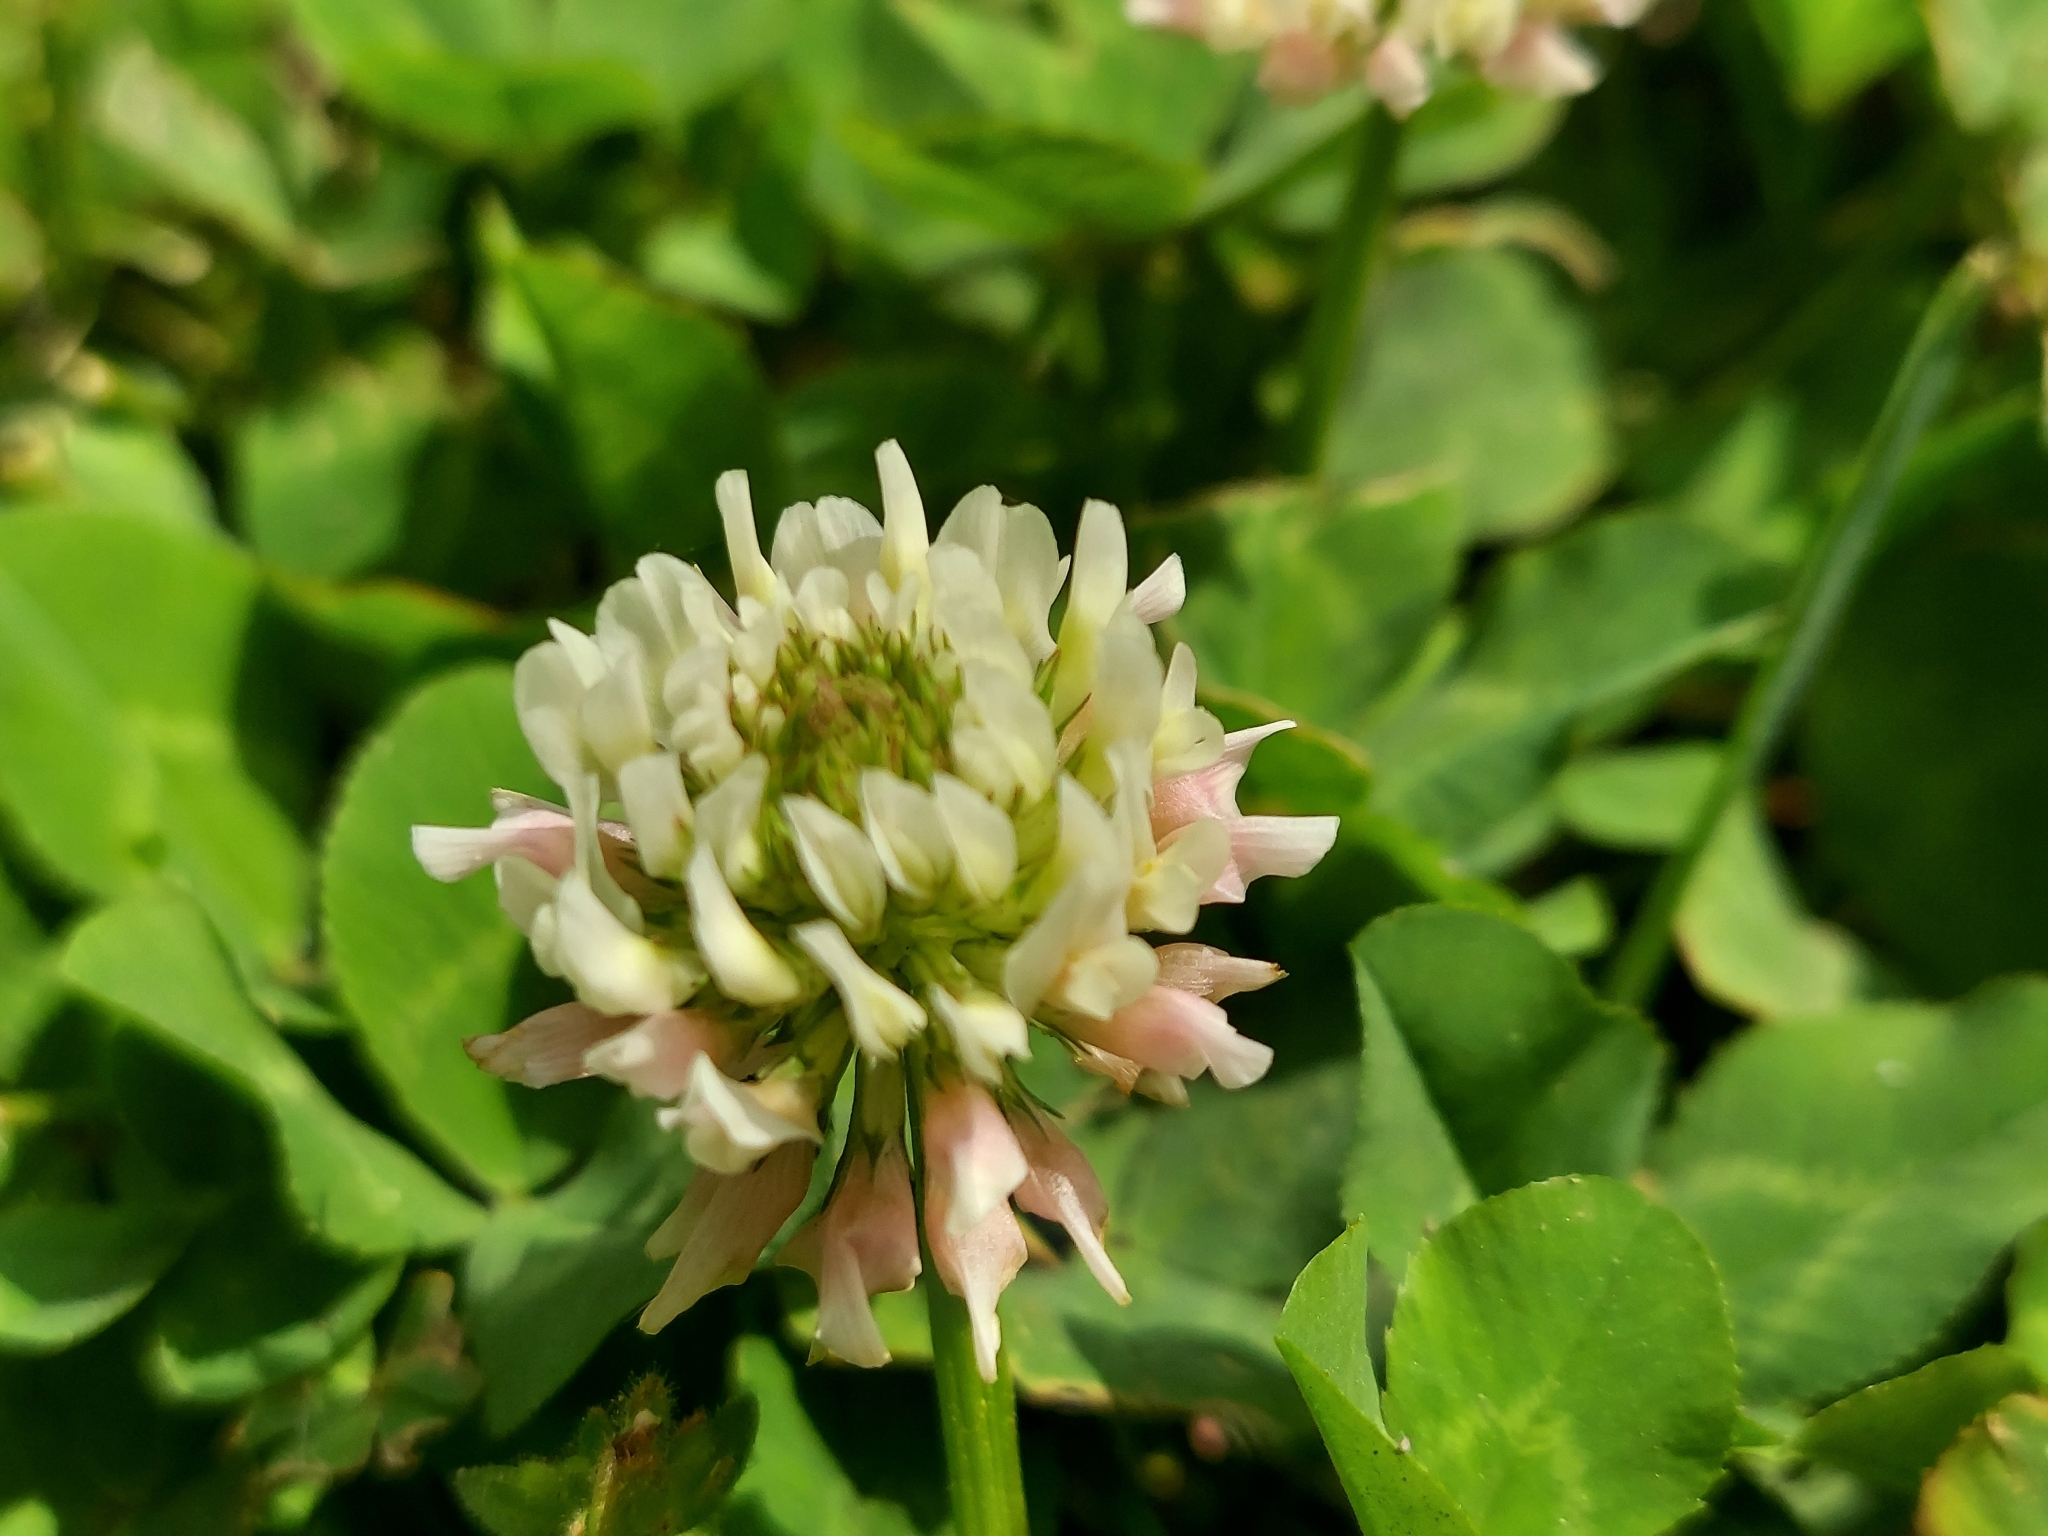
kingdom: Plantae
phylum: Tracheophyta
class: Magnoliopsida
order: Fabales
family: Fabaceae
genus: Trifolium
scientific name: Trifolium repens
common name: White clover
